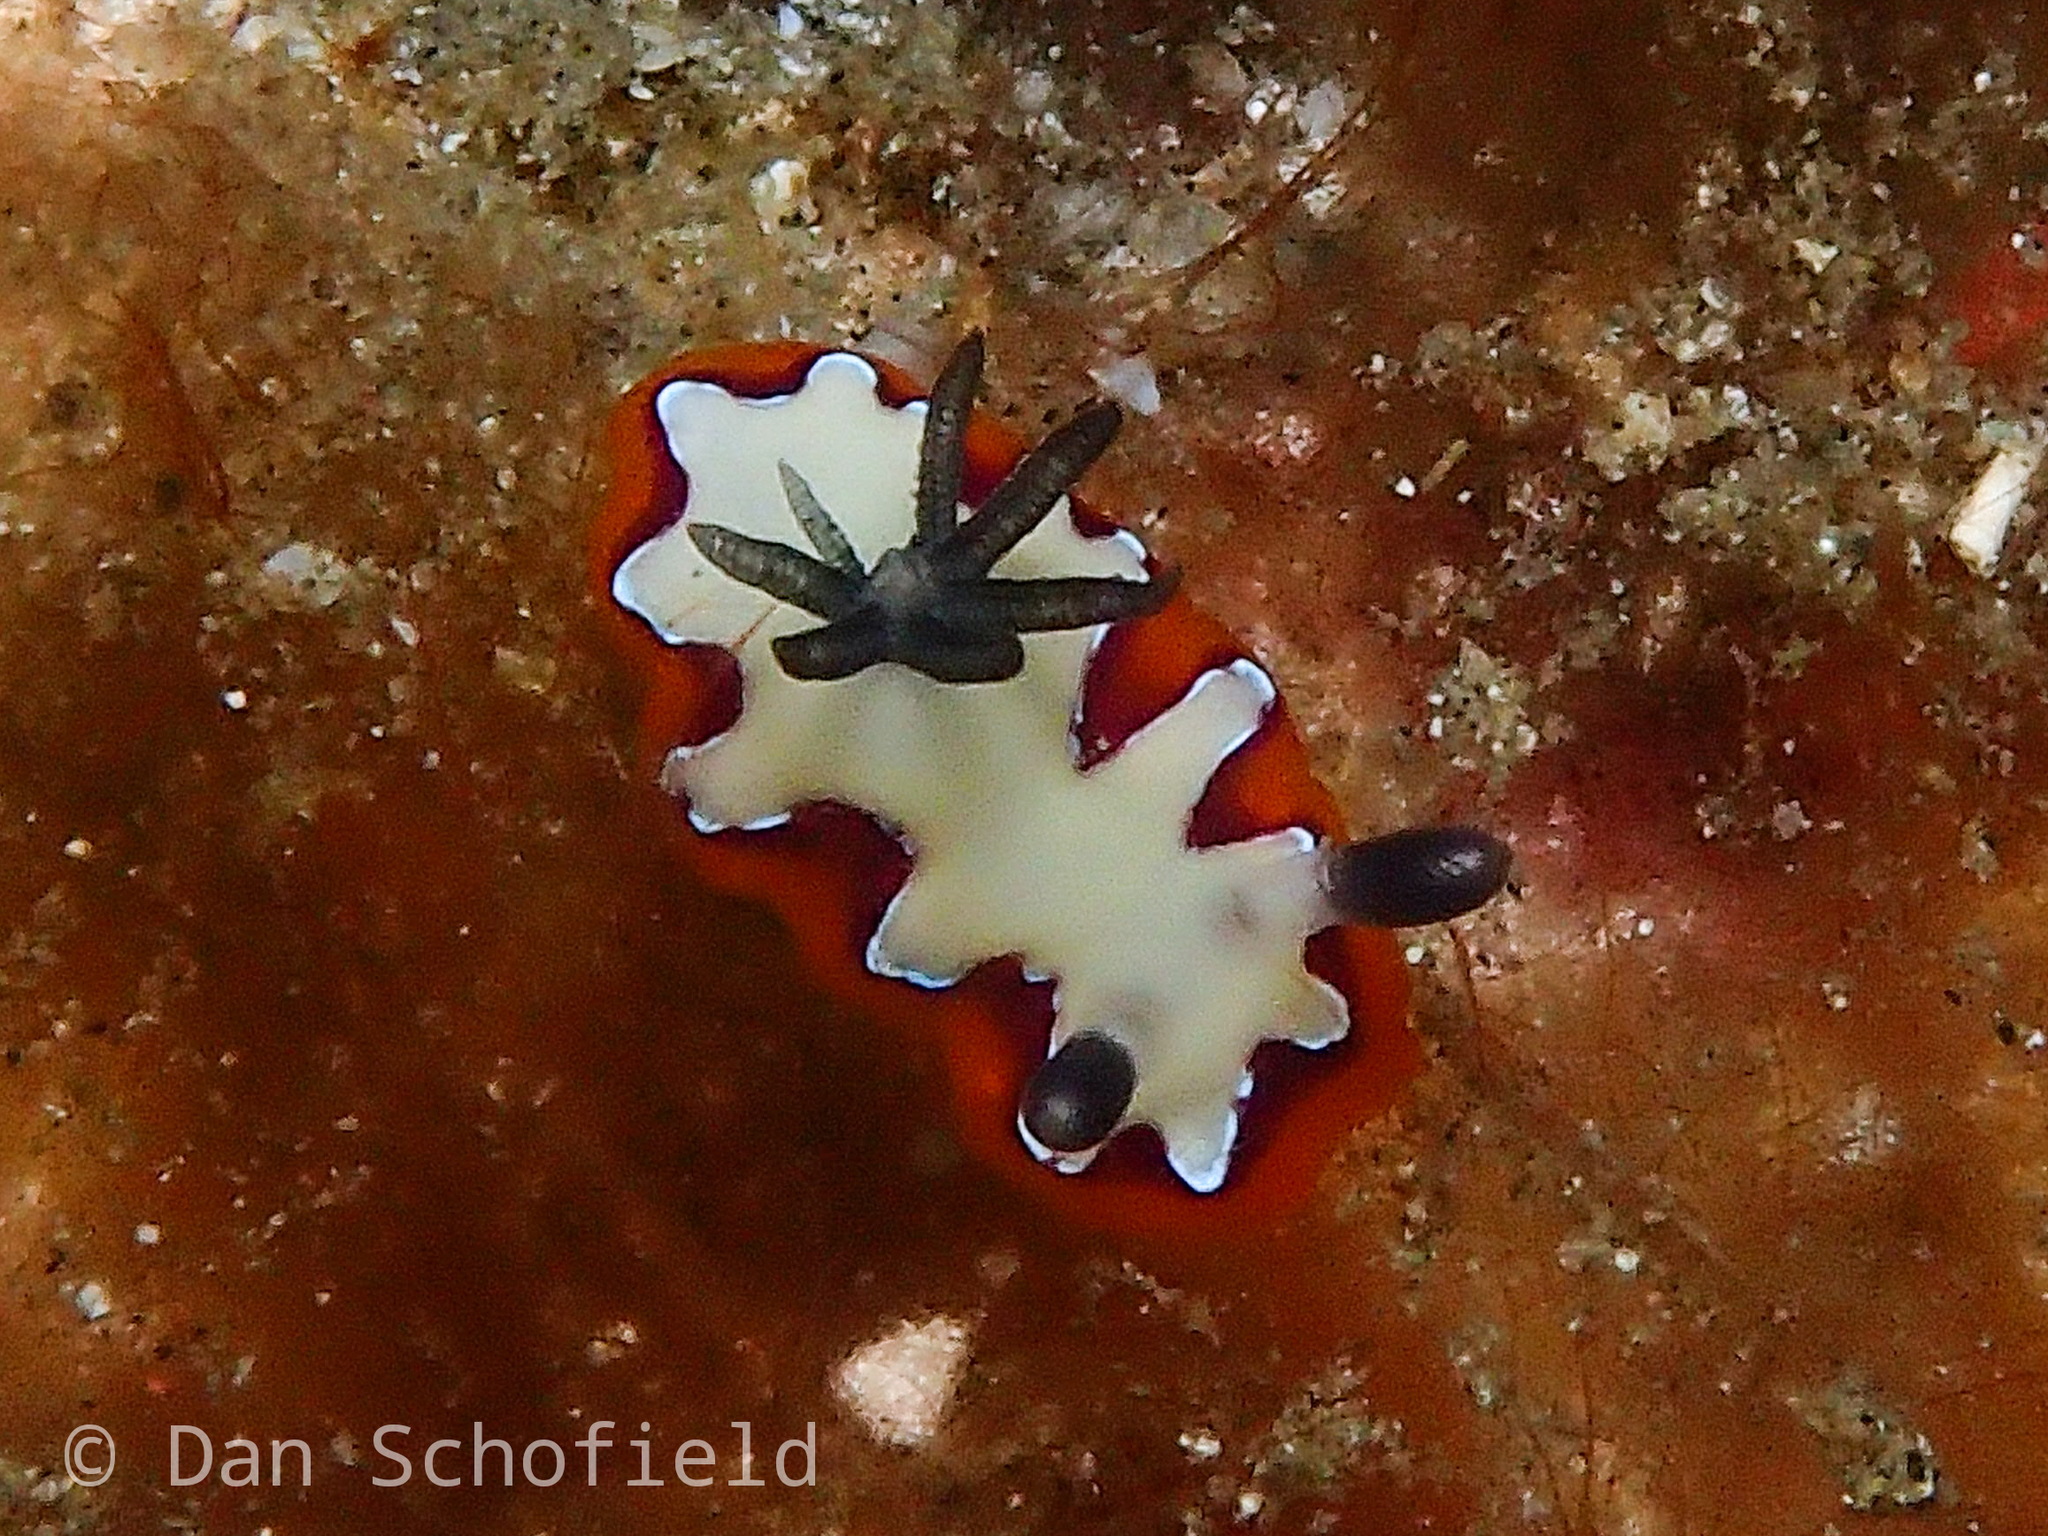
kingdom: Animalia
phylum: Mollusca
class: Gastropoda
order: Nudibranchia
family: Chromodorididae
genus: Goniobranchus
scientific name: Goniobranchus fidelis
